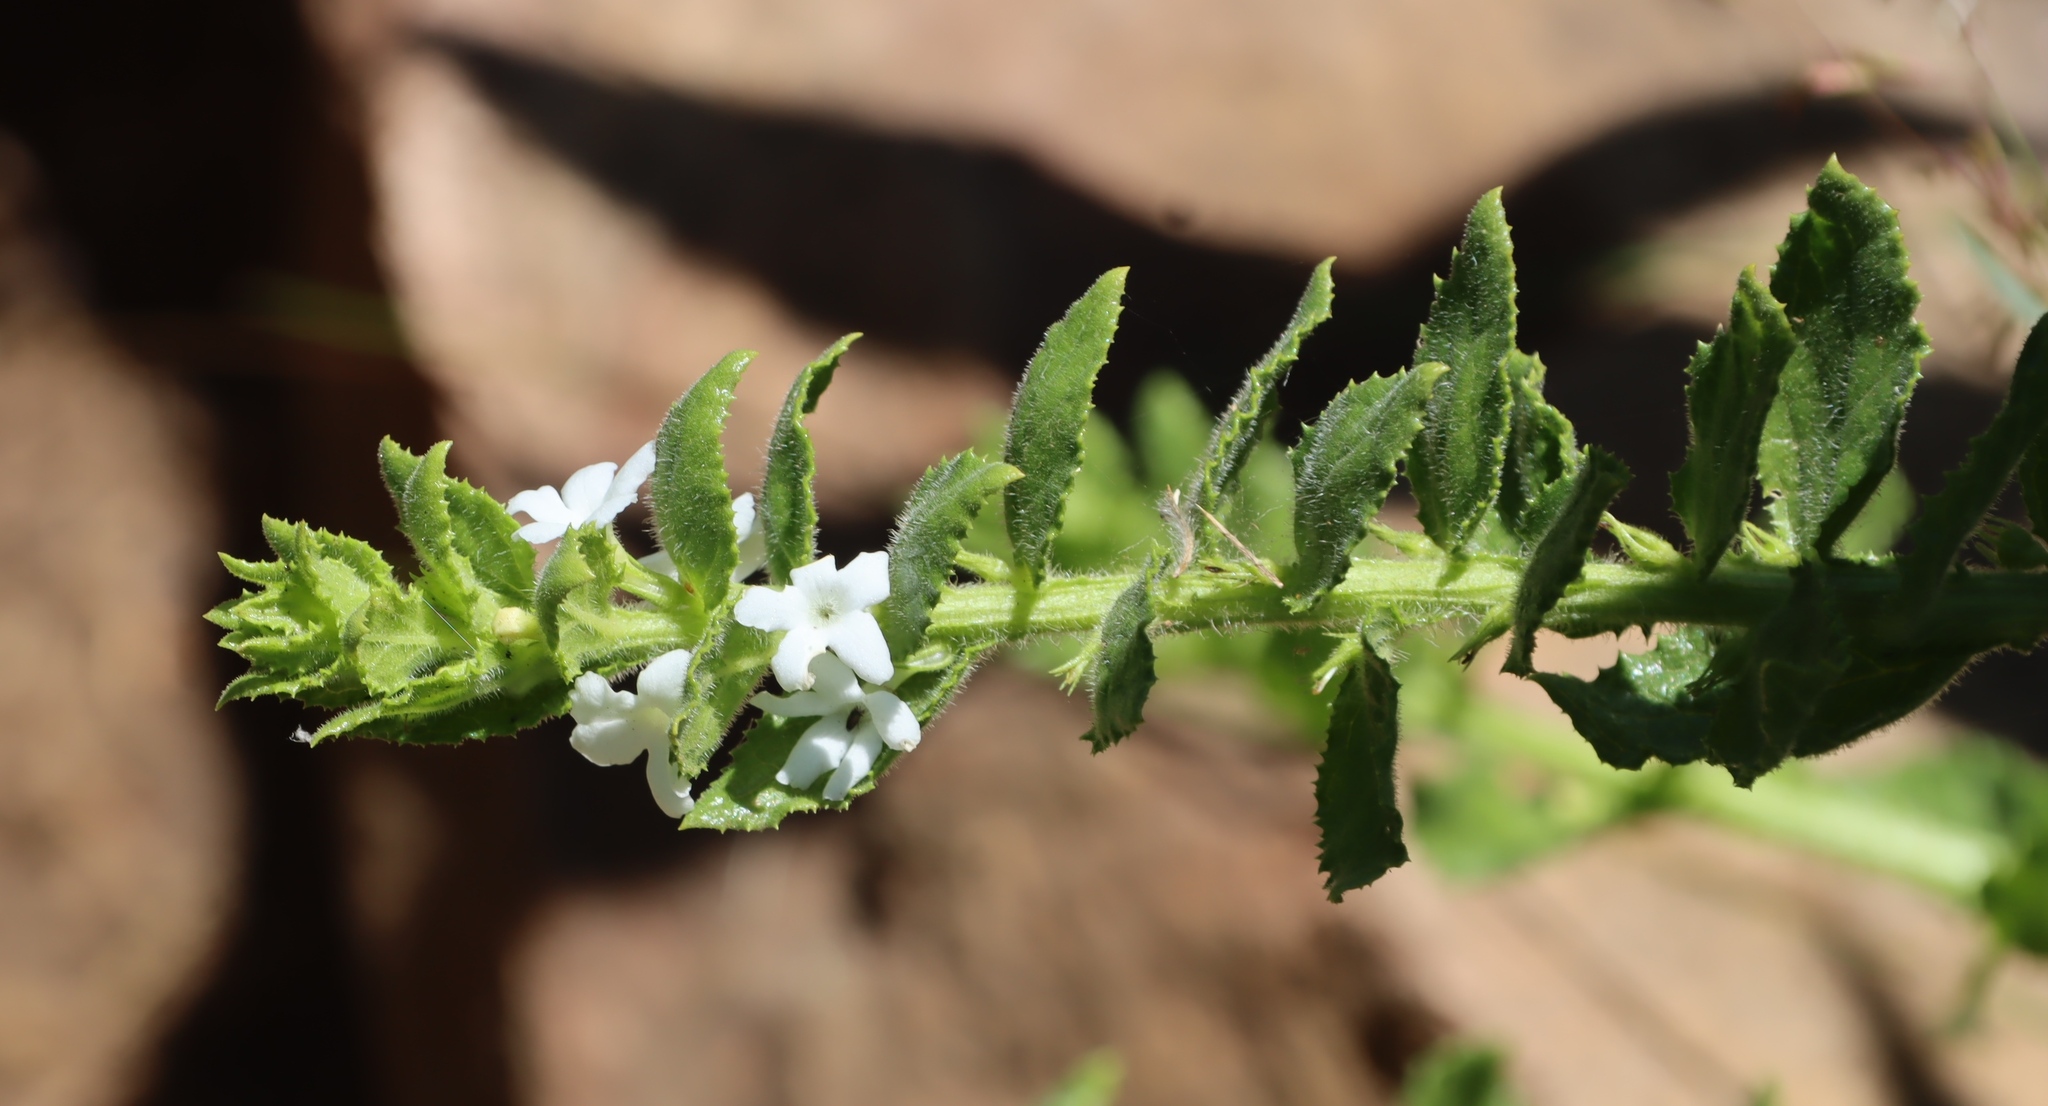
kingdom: Plantae
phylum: Tracheophyta
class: Magnoliopsida
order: Lamiales
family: Scrophulariaceae
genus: Oftia
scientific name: Oftia africana
